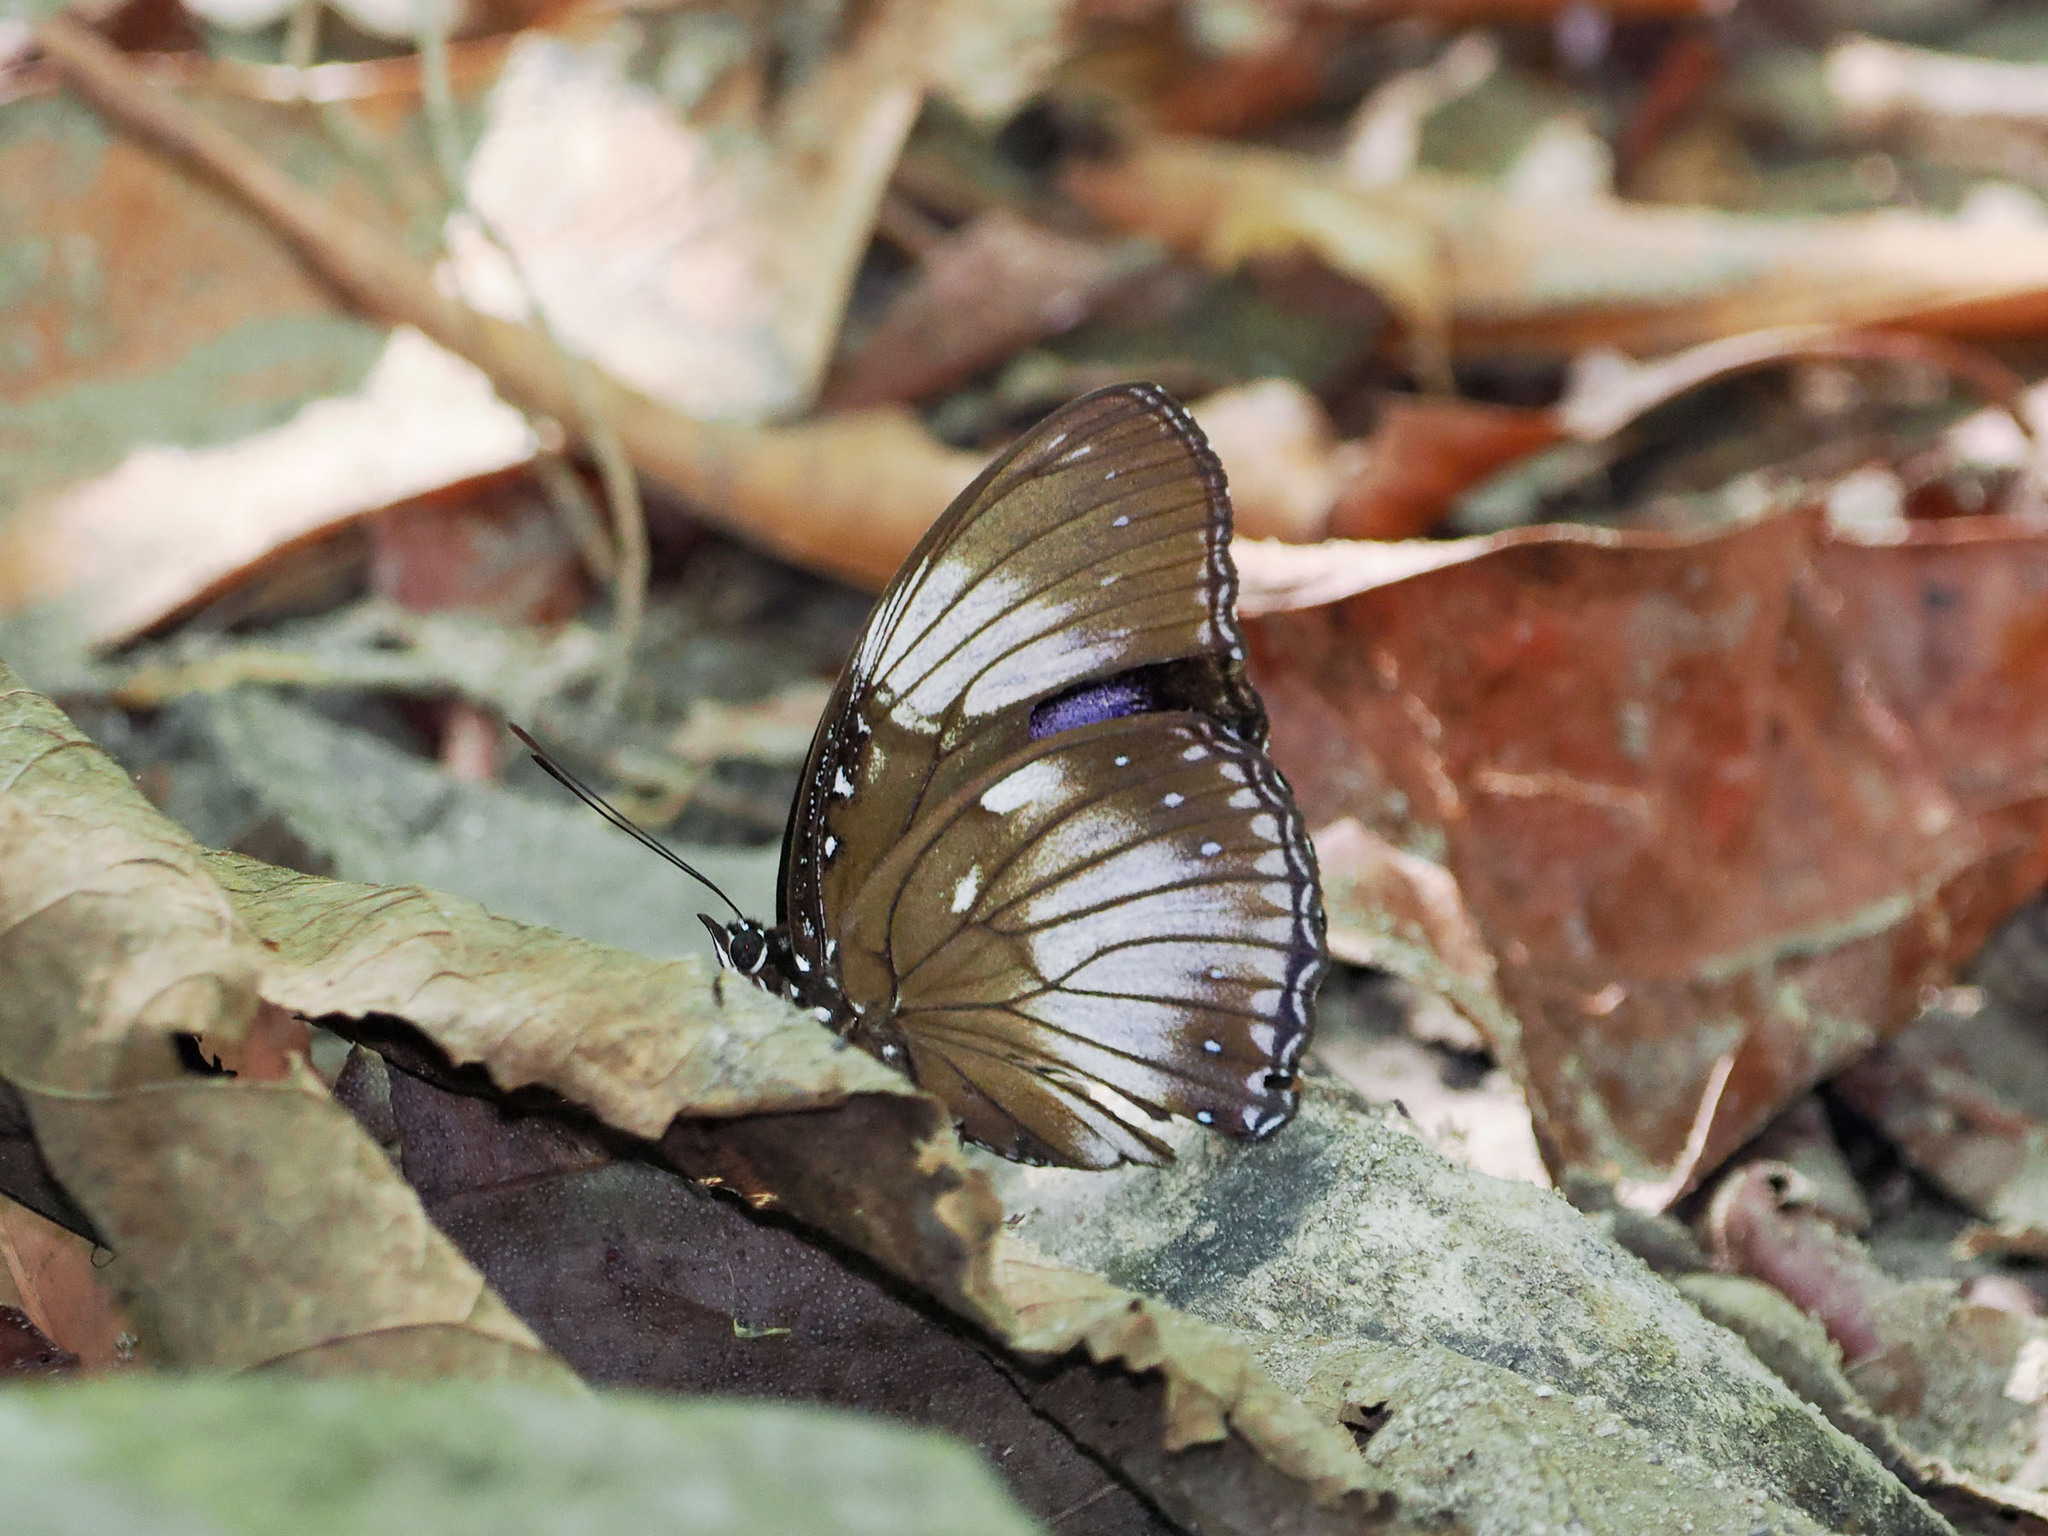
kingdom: Animalia
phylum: Arthropoda
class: Insecta
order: Lepidoptera
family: Nymphalidae
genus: Hypolimnas
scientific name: Hypolimnas diomea
